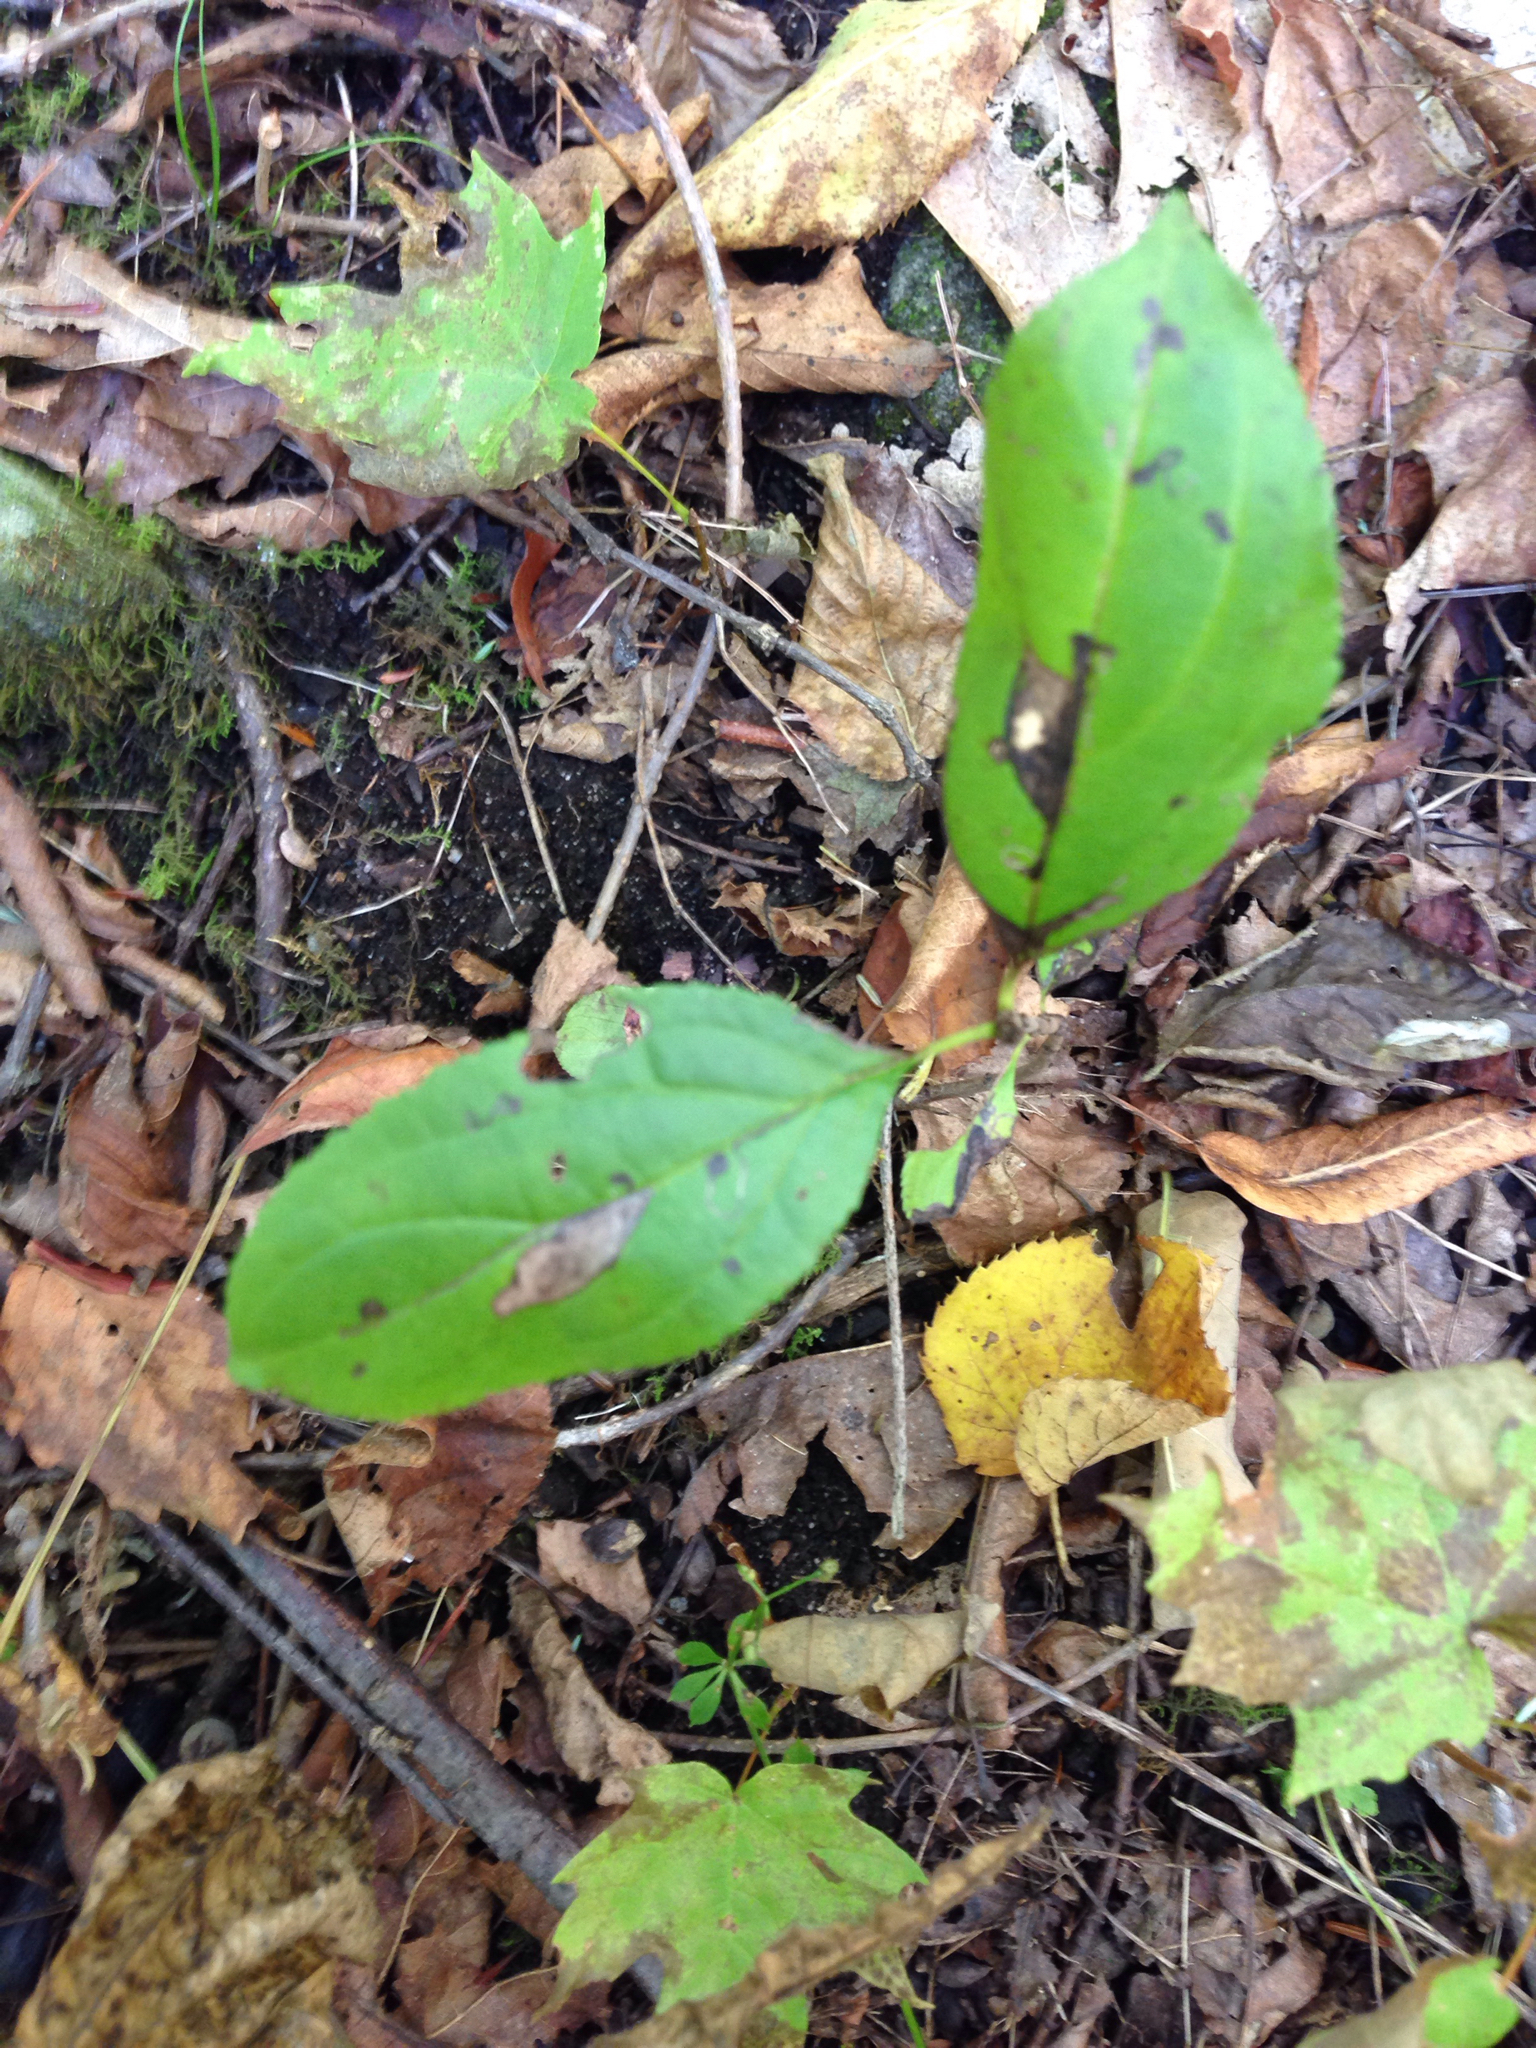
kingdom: Plantae
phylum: Tracheophyta
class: Magnoliopsida
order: Rosales
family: Rhamnaceae
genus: Rhamnus
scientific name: Rhamnus cathartica
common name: Common buckthorn
